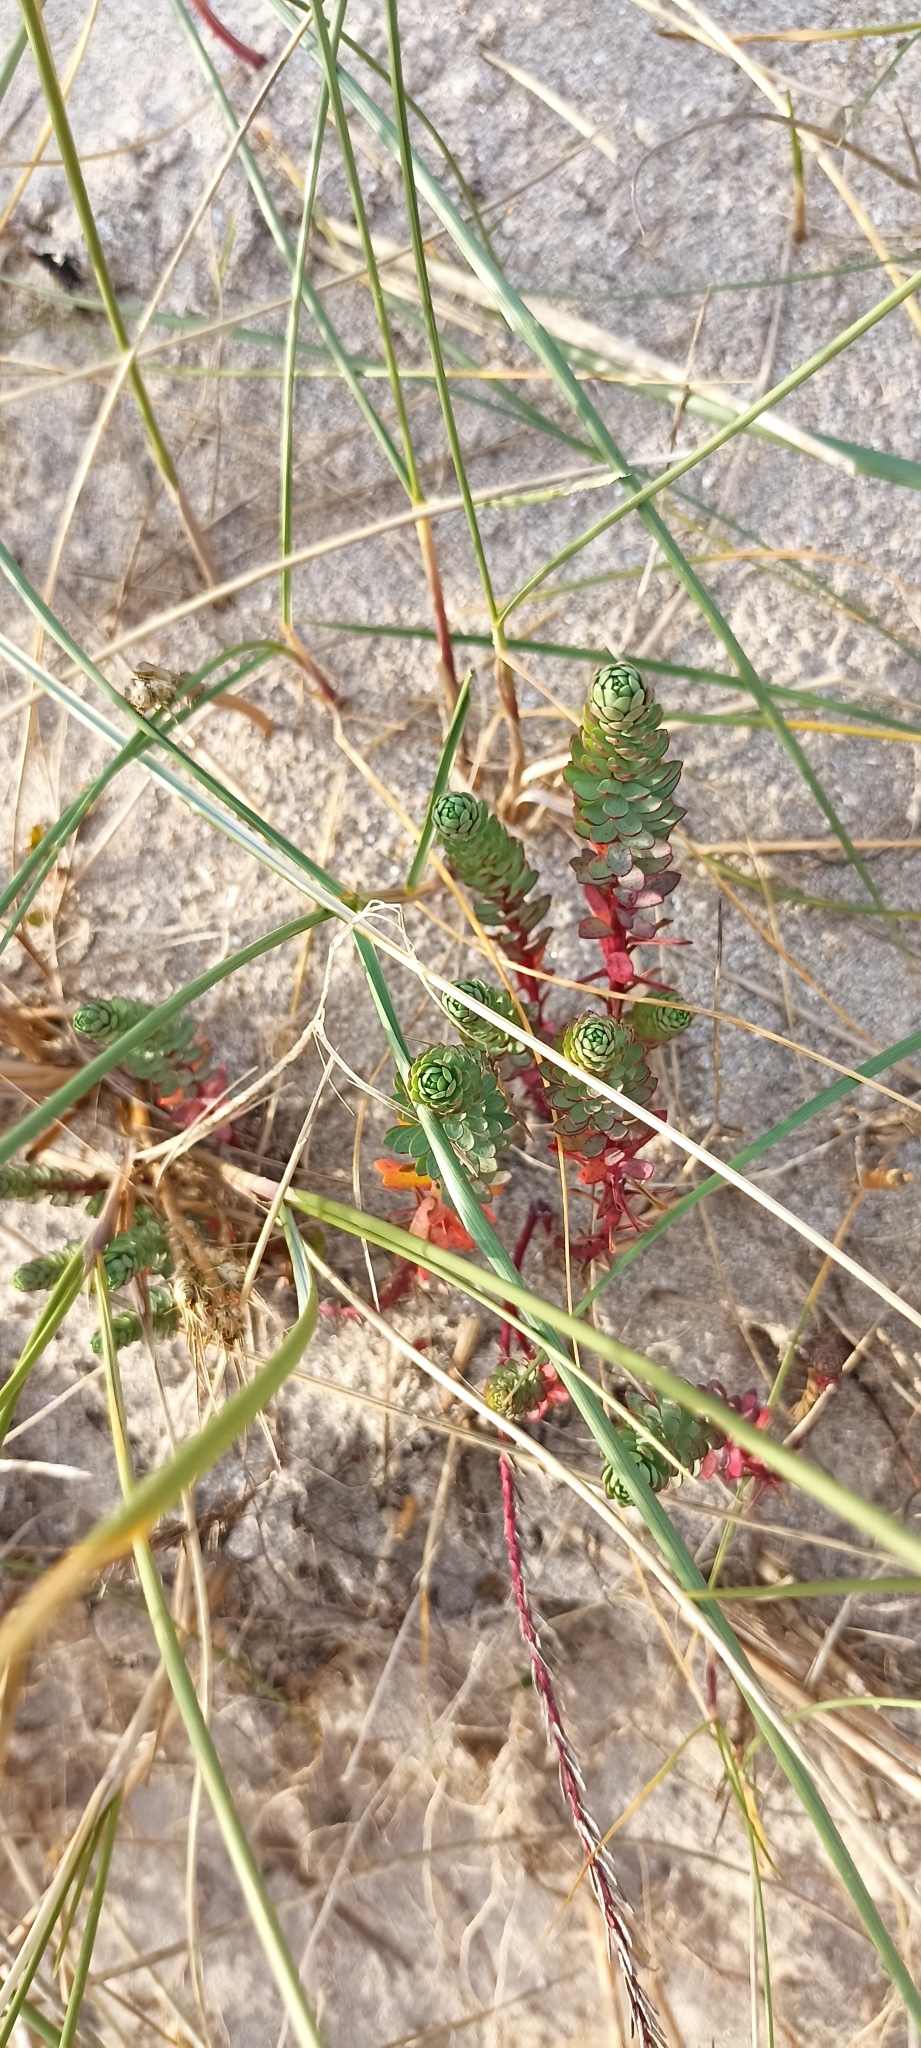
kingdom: Plantae
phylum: Tracheophyta
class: Magnoliopsida
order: Malpighiales
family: Euphorbiaceae
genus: Euphorbia
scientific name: Euphorbia paralias
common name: Sea spurge
